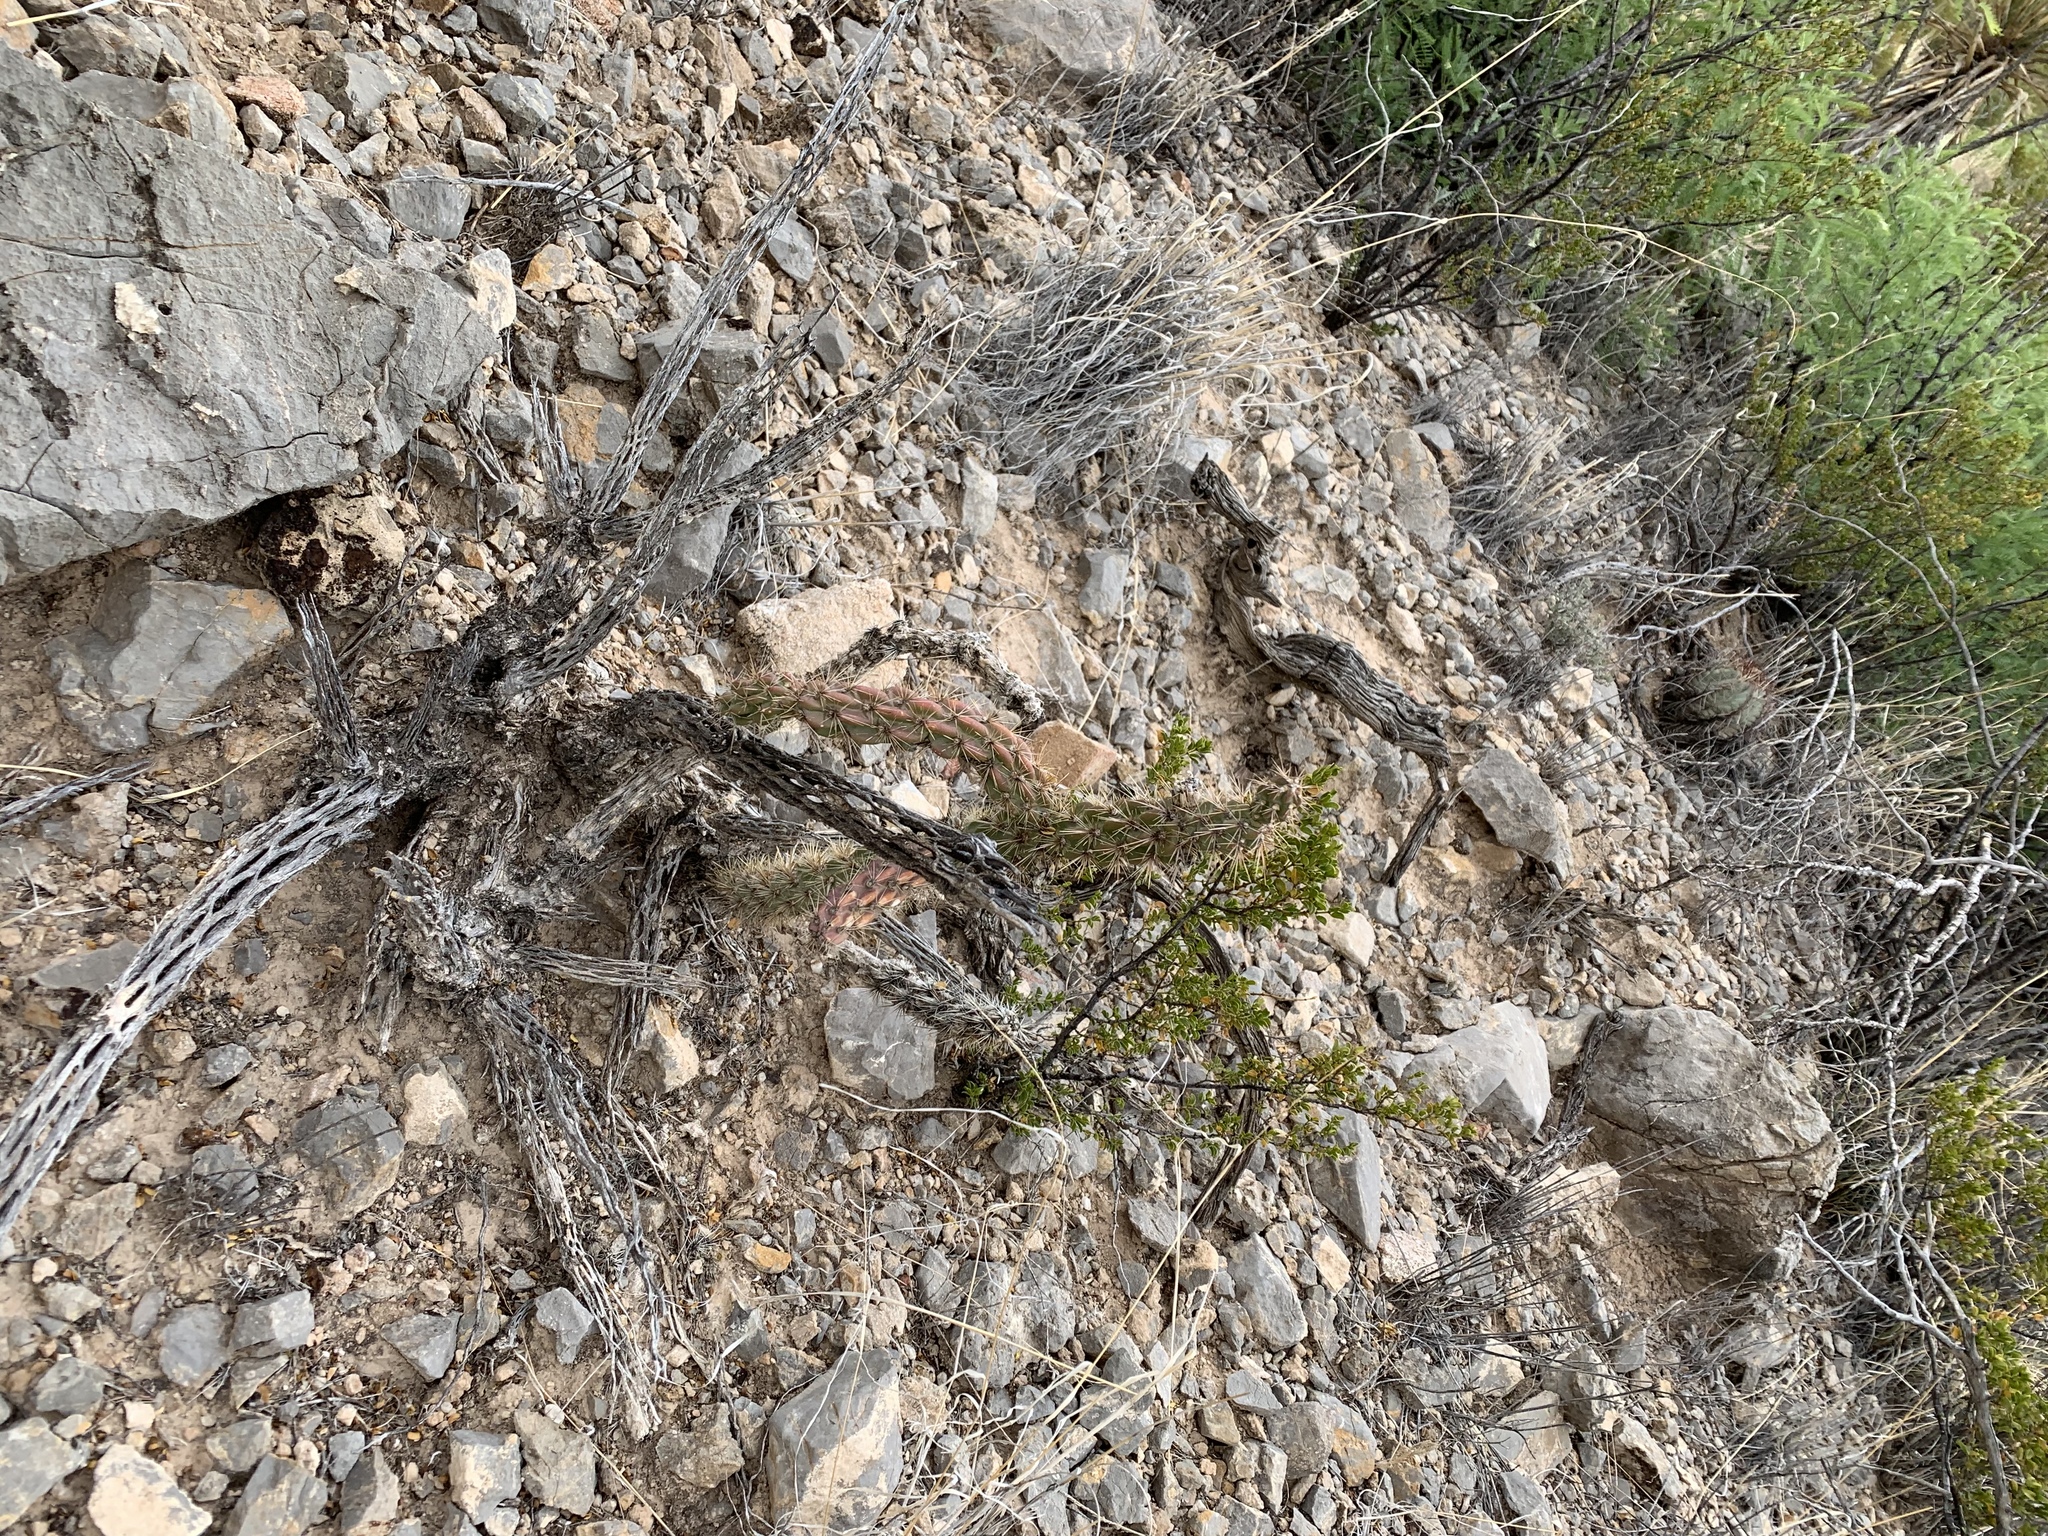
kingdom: Plantae
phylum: Tracheophyta
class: Magnoliopsida
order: Caryophyllales
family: Cactaceae
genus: Cylindropuntia
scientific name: Cylindropuntia imbricata
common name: Candelabrum cactus
